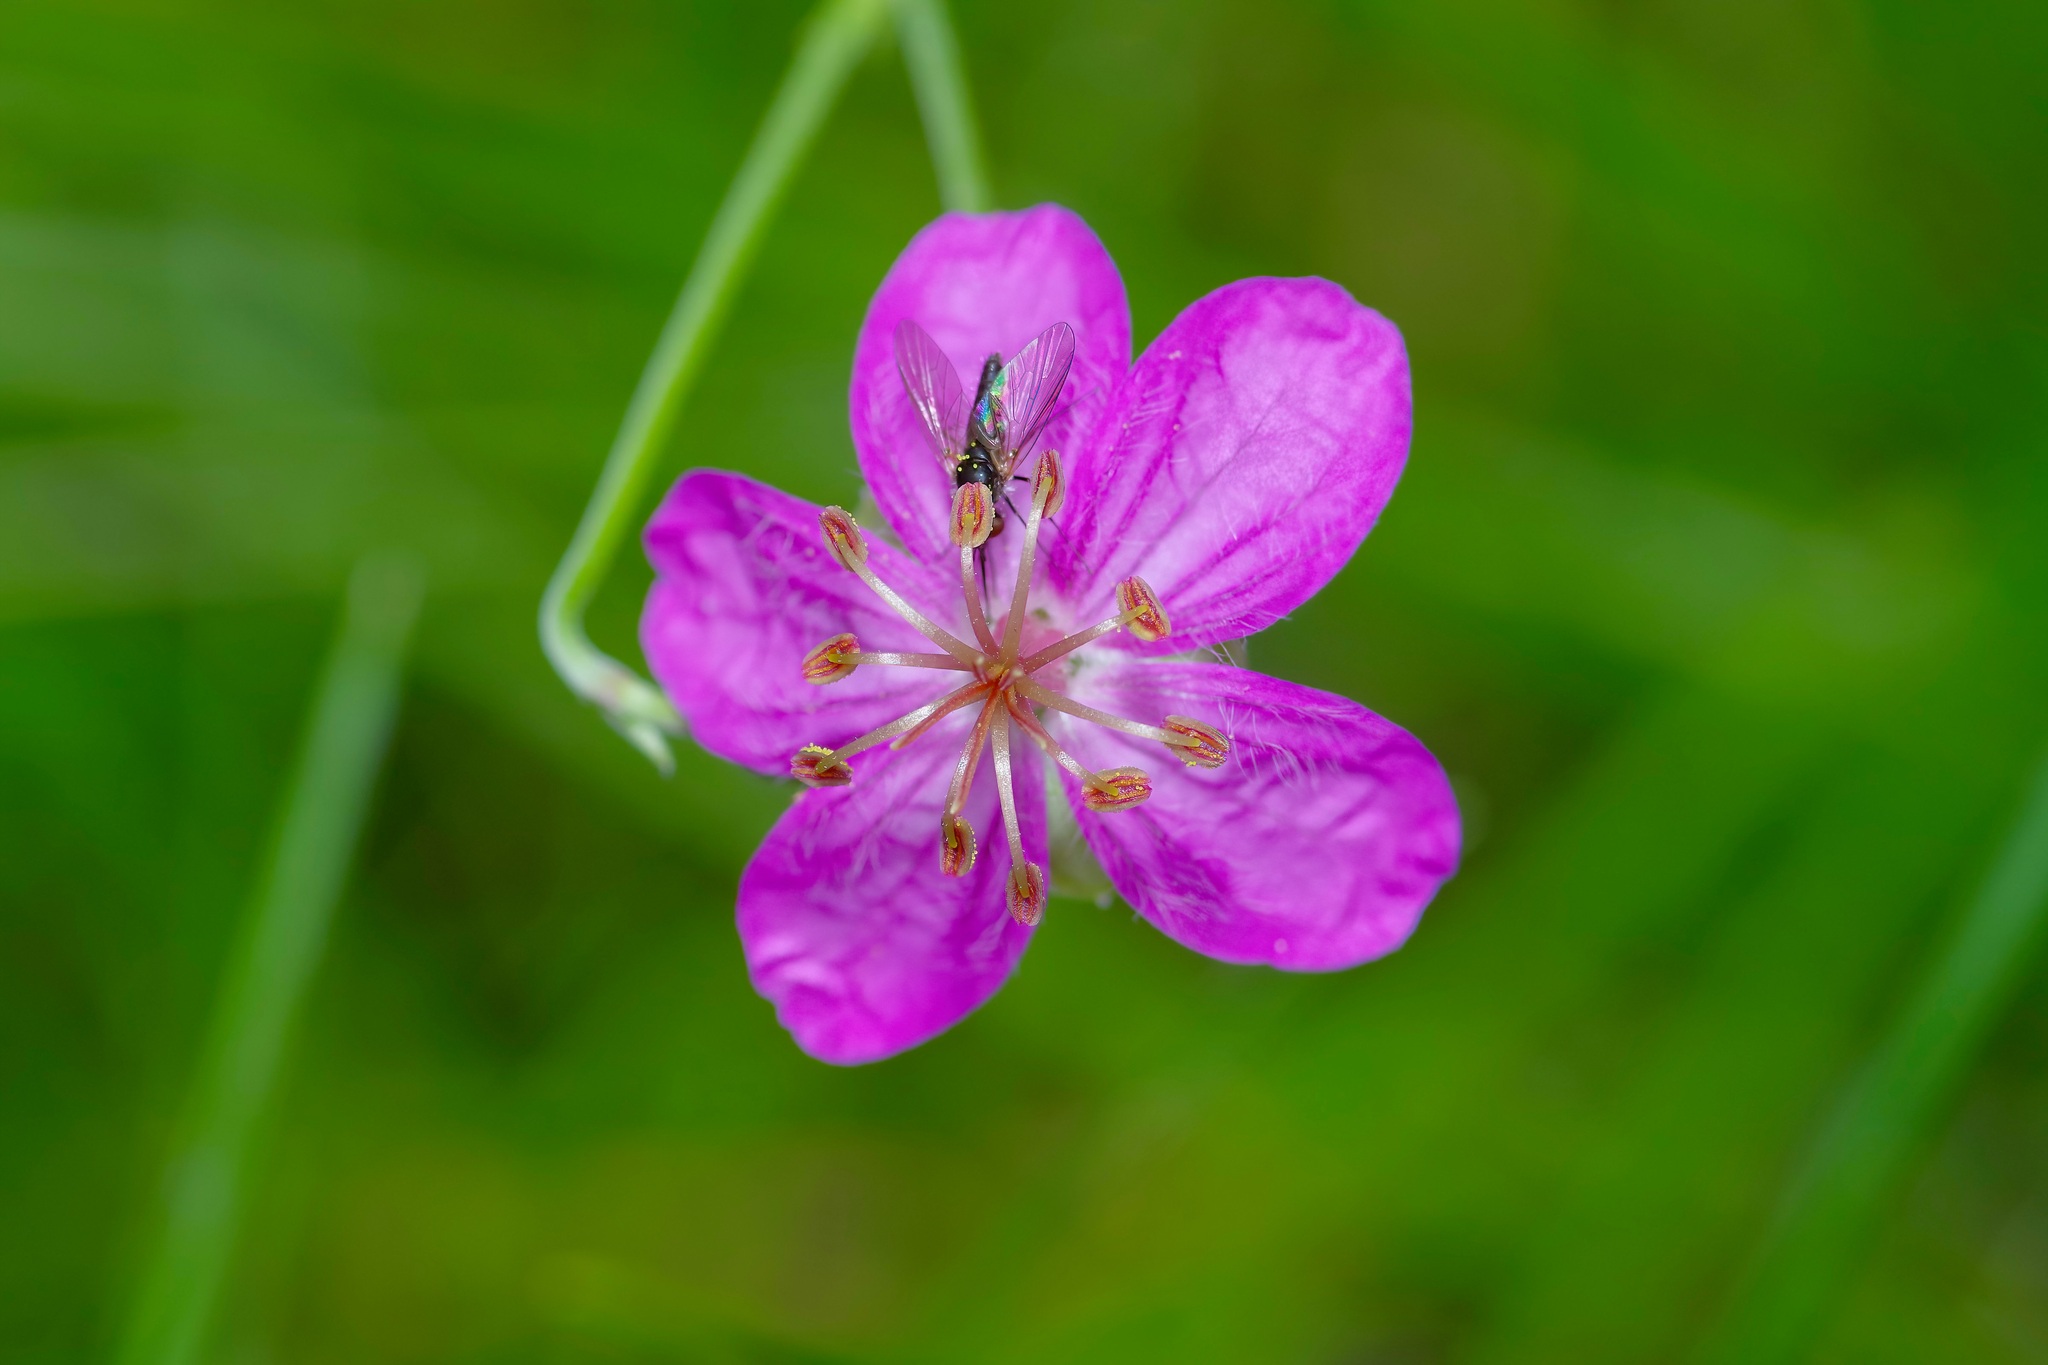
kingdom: Plantae
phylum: Tracheophyta
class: Magnoliopsida
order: Geraniales
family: Geraniaceae
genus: Geranium
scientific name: Geranium caespitosum
